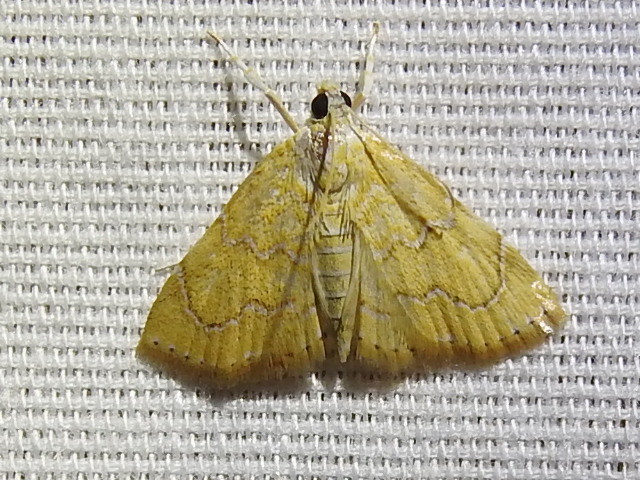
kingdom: Animalia
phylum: Arthropoda
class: Insecta
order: Lepidoptera
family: Crambidae
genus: Glaphyria
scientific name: Glaphyria sesquistrialis
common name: White-roped glaphyria
